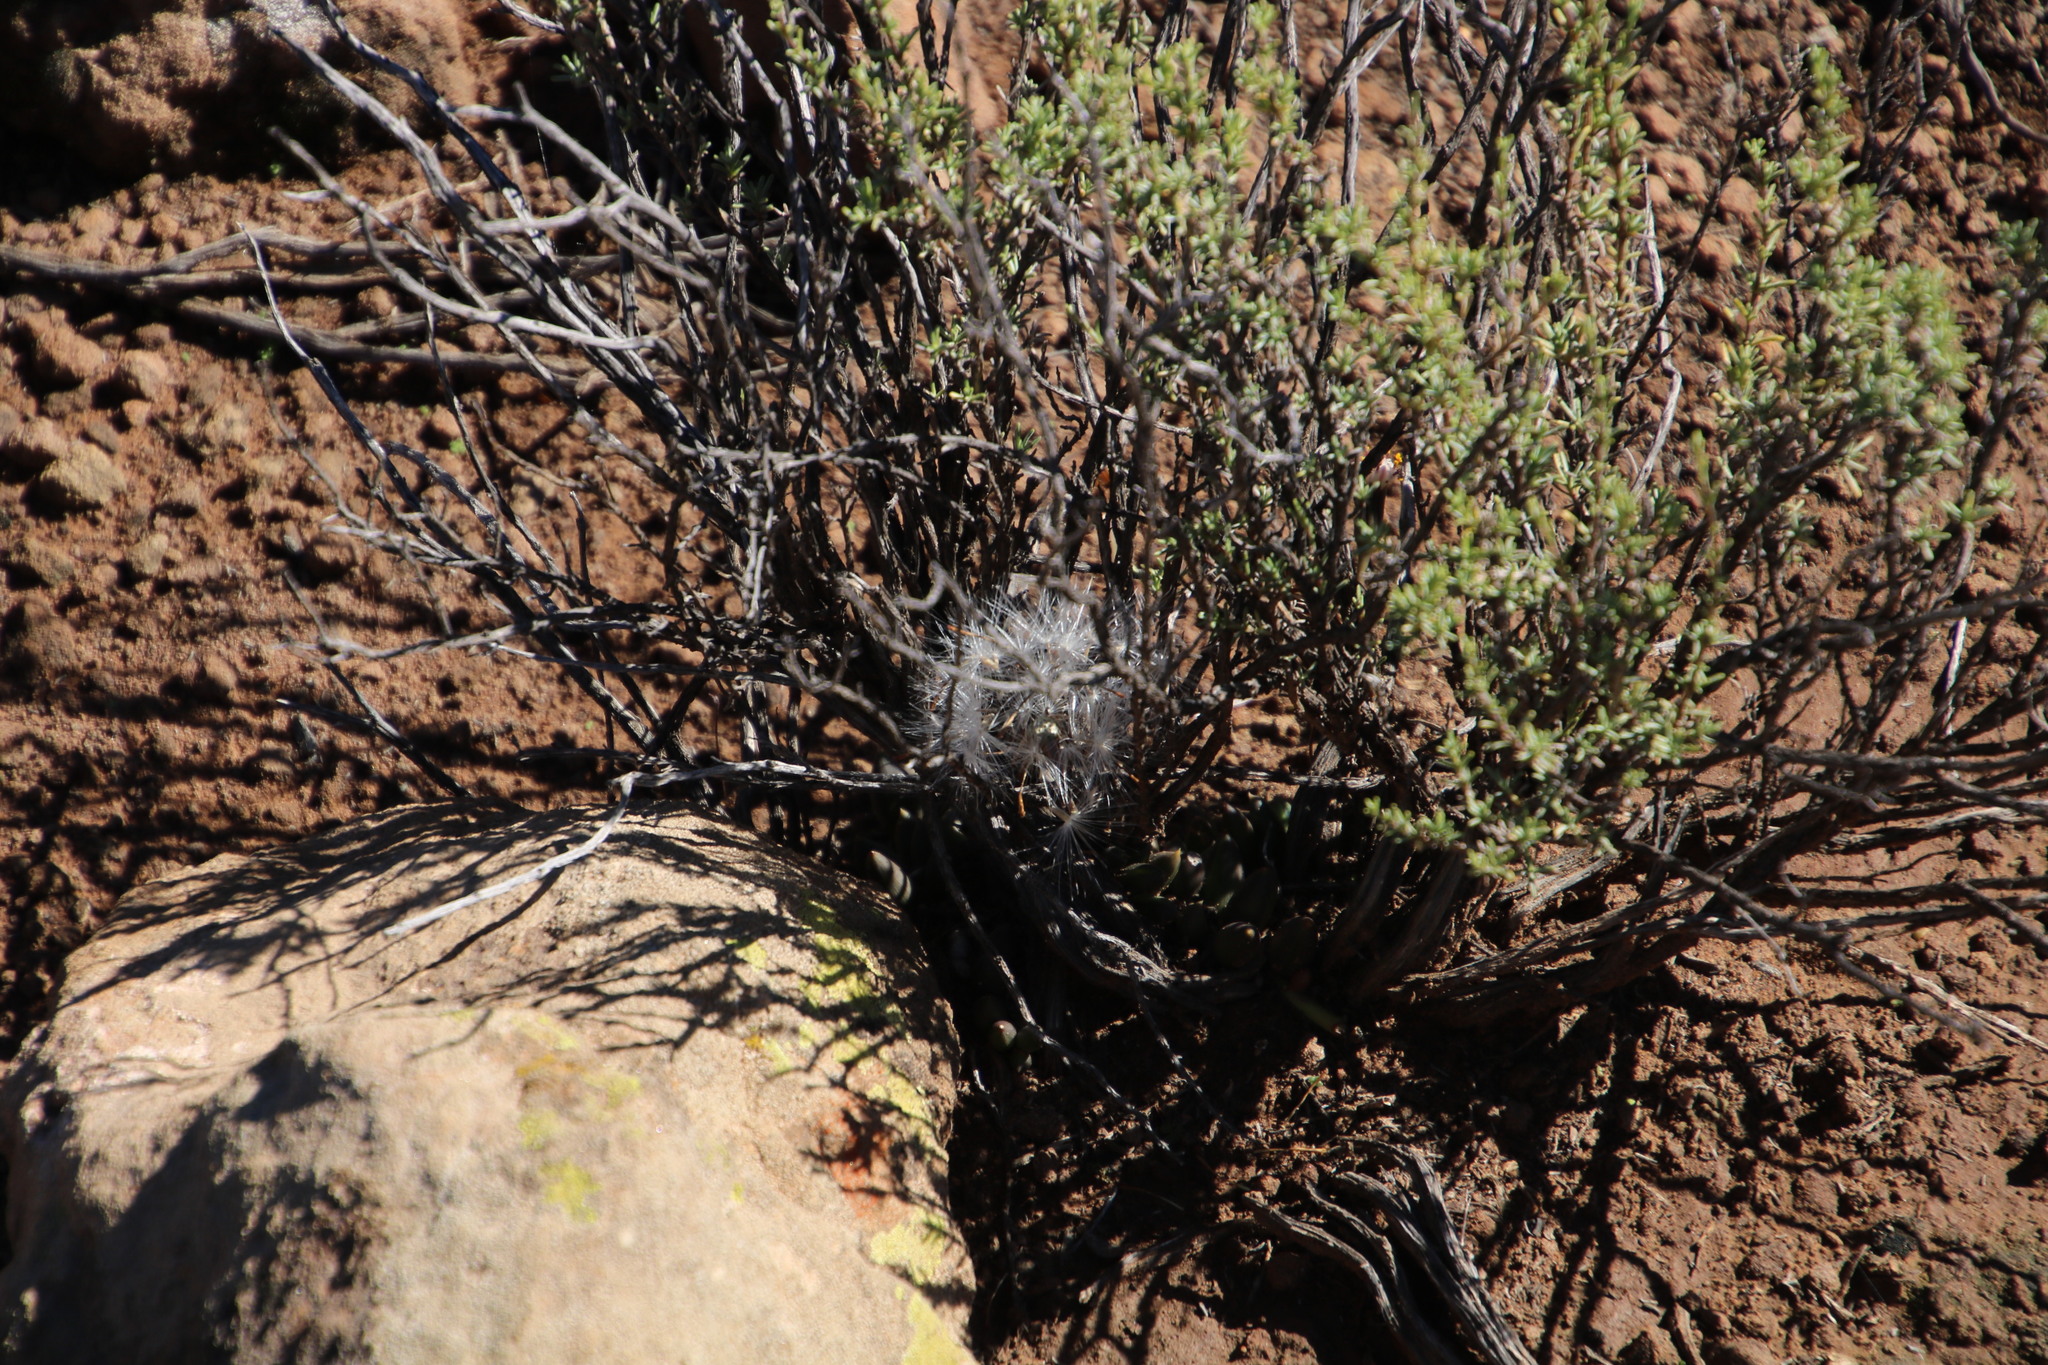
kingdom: Plantae
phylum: Tracheophyta
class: Magnoliopsida
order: Asterales
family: Asteraceae
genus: Curio
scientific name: Curio radicans
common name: Creeping-berry
